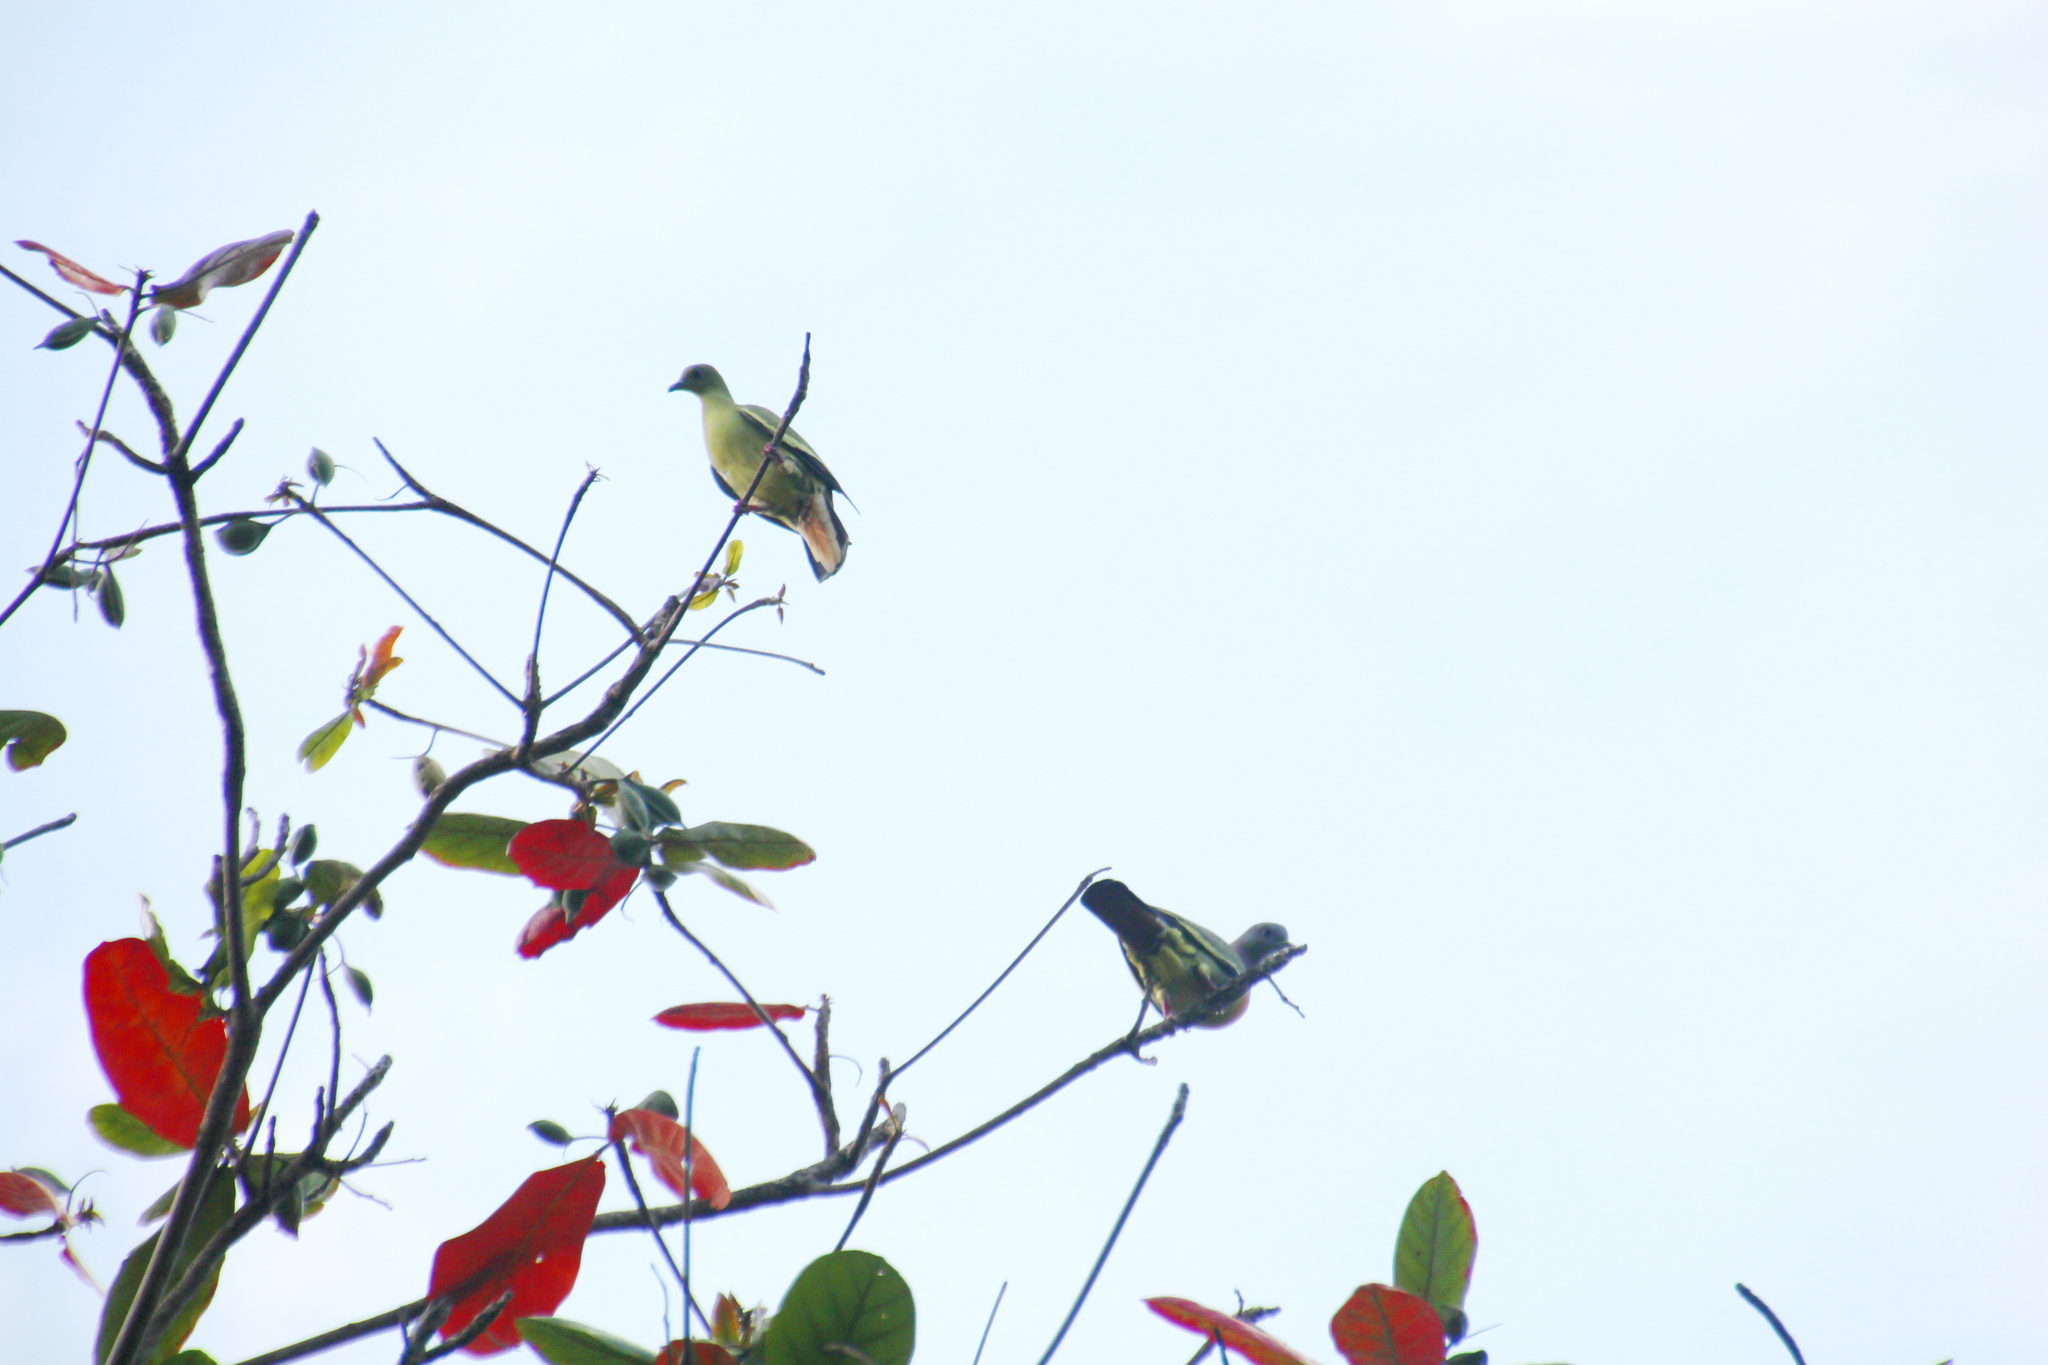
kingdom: Animalia
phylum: Chordata
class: Aves
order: Columbiformes
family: Columbidae
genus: Treron
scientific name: Treron vernans
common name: Pink-necked green pigeon
